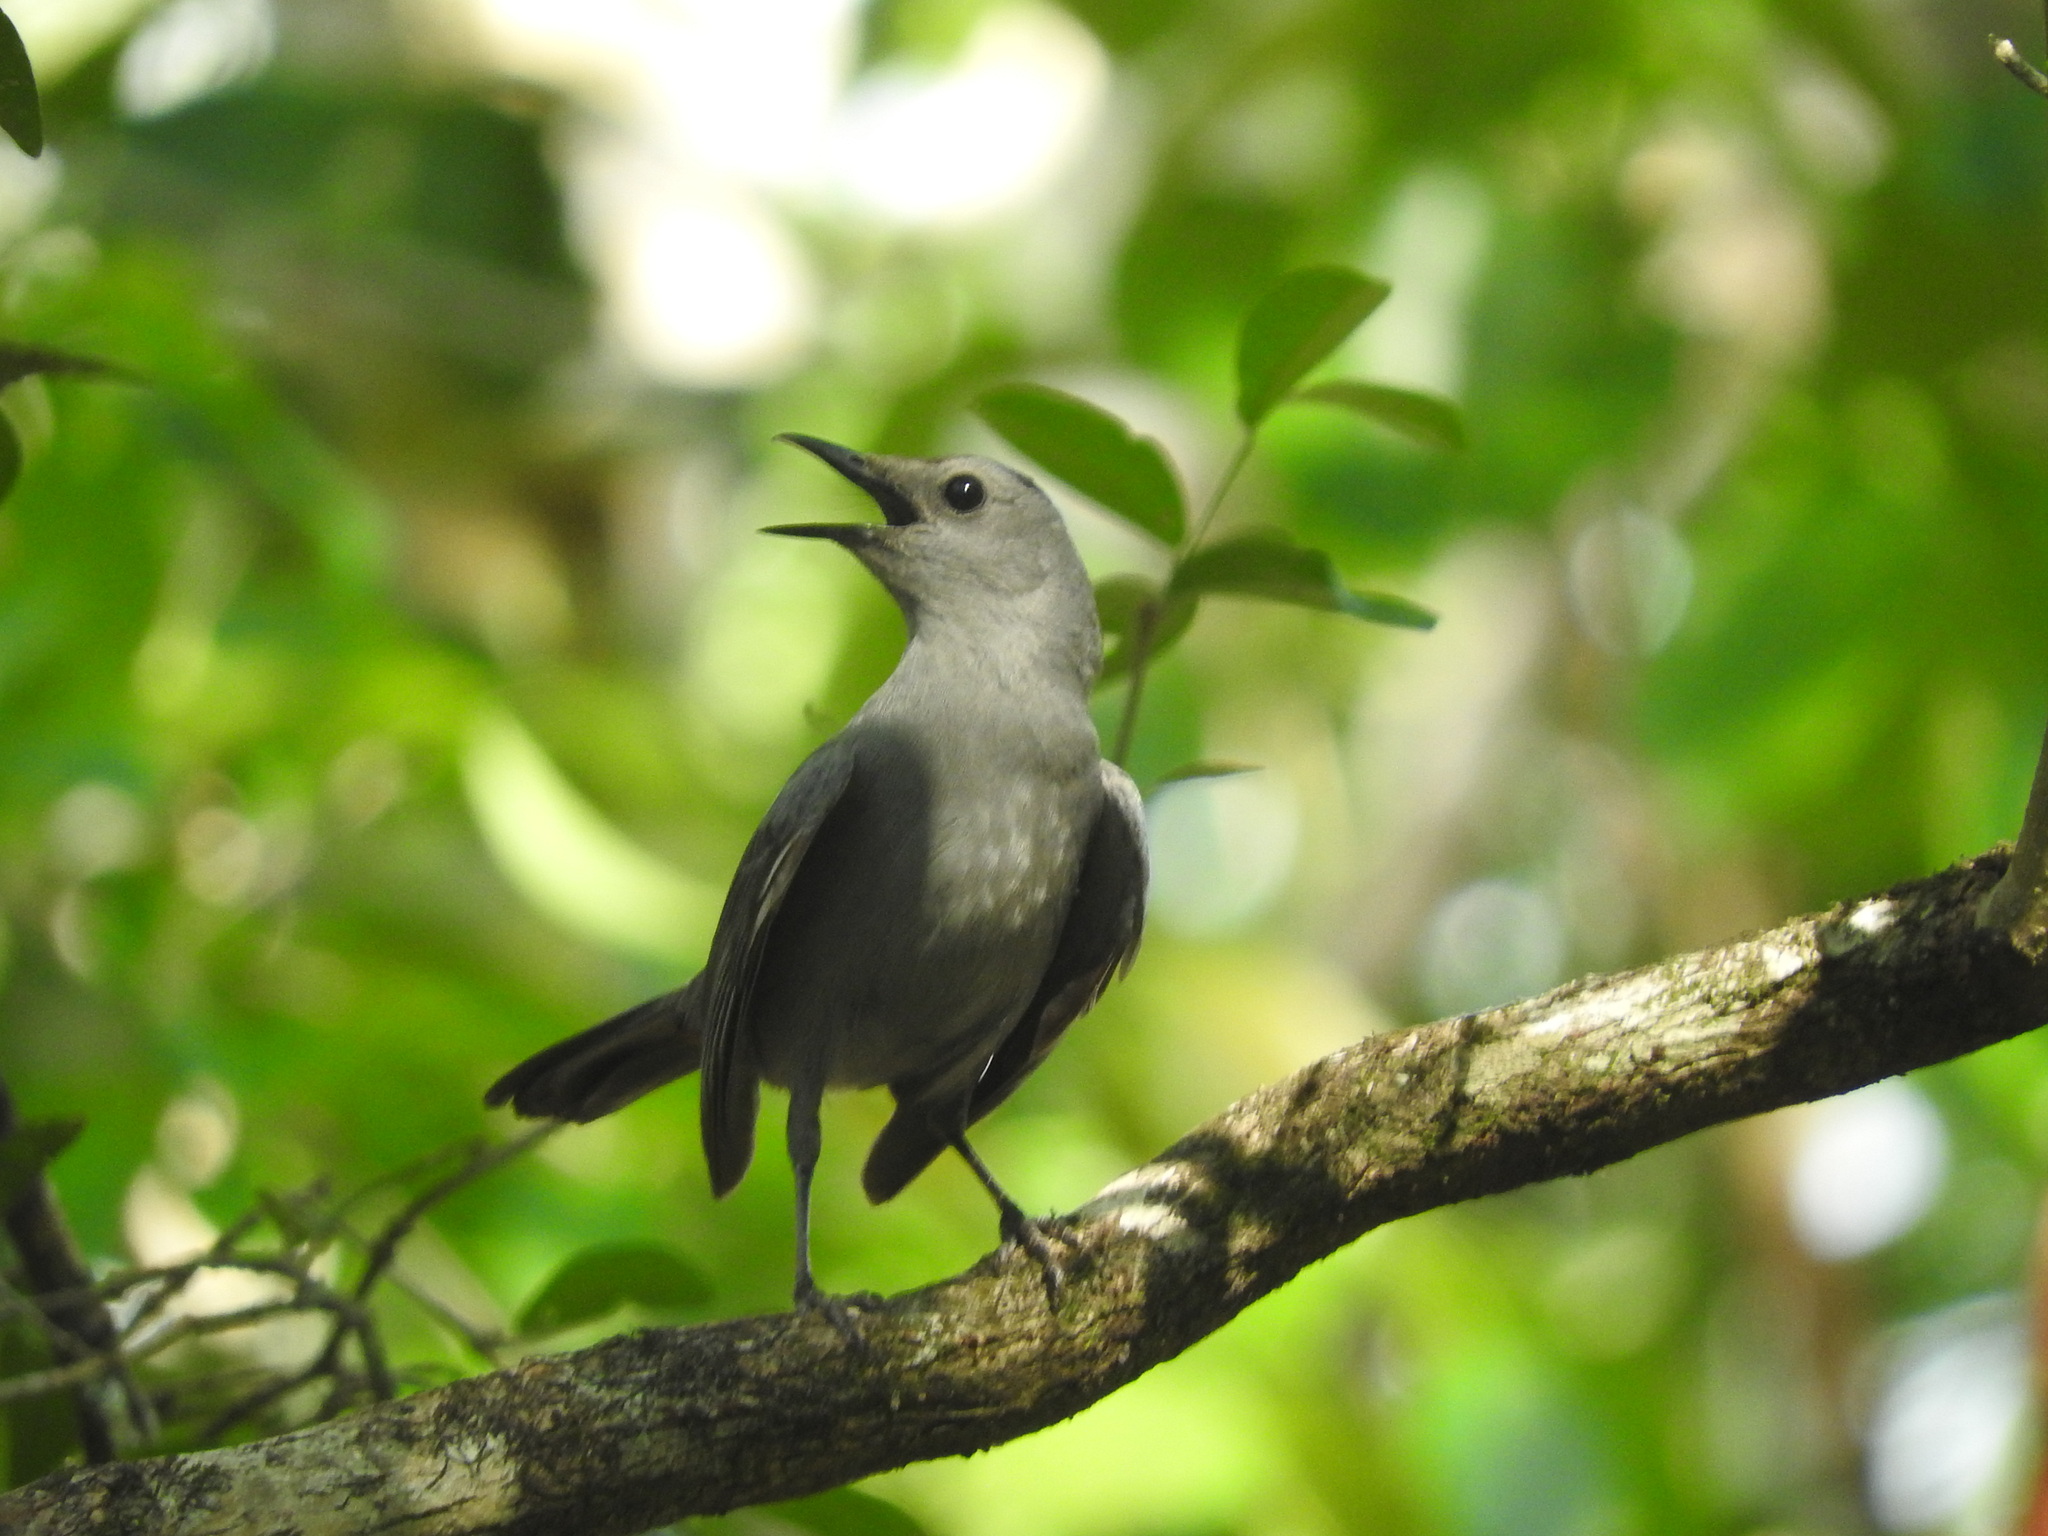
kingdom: Animalia
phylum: Chordata
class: Aves
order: Passeriformes
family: Mimidae
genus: Dumetella
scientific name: Dumetella carolinensis
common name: Gray catbird
